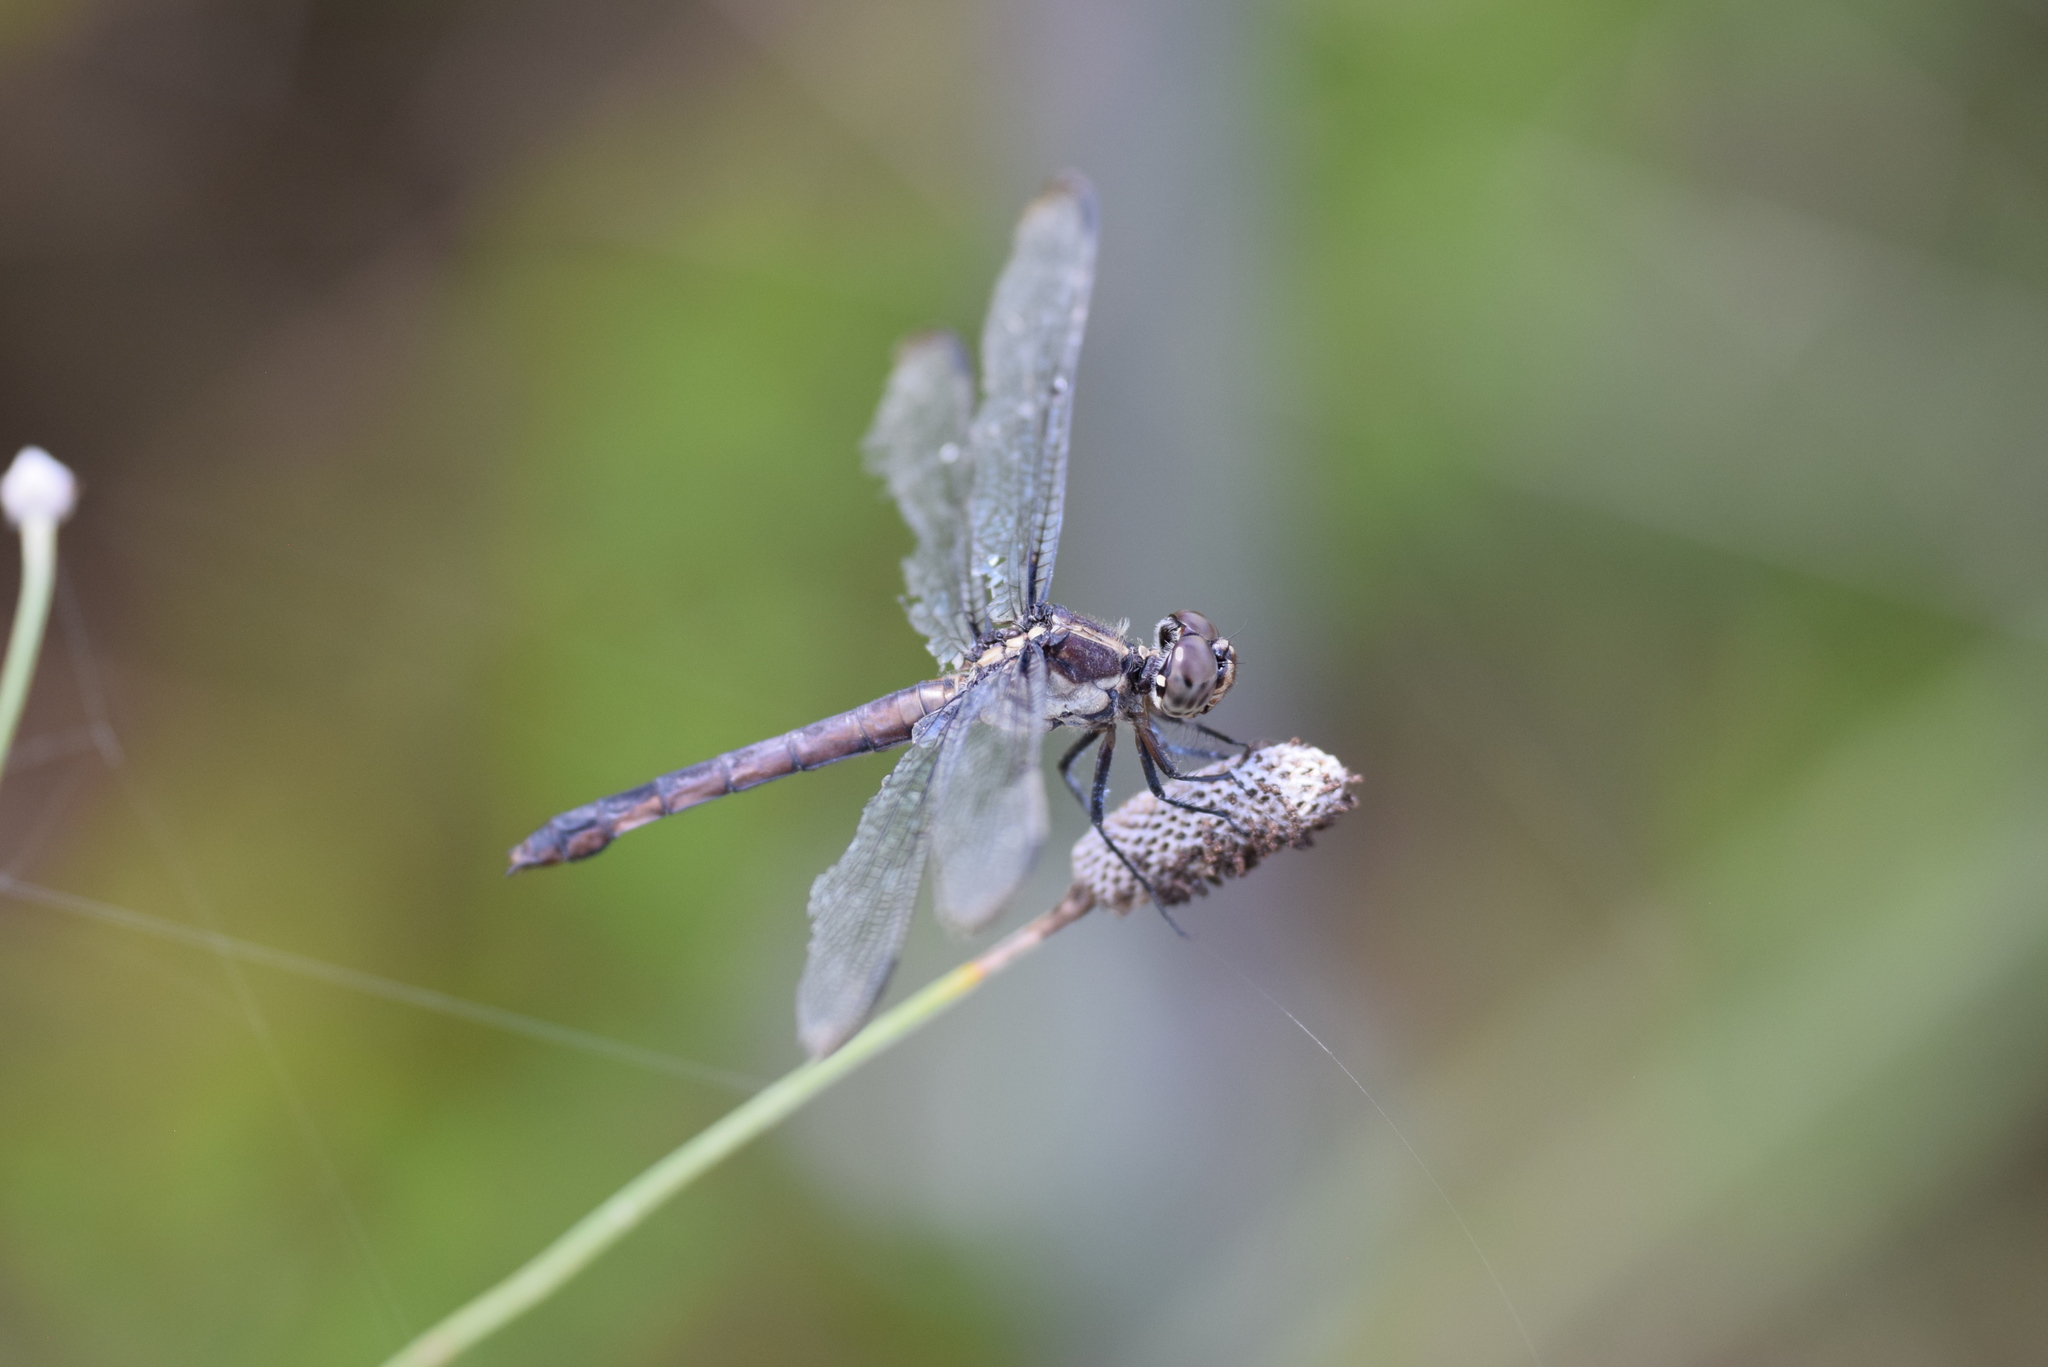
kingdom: Animalia
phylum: Arthropoda
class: Insecta
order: Odonata
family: Libellulidae
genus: Libellula
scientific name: Libellula incesta
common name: Slaty skimmer
